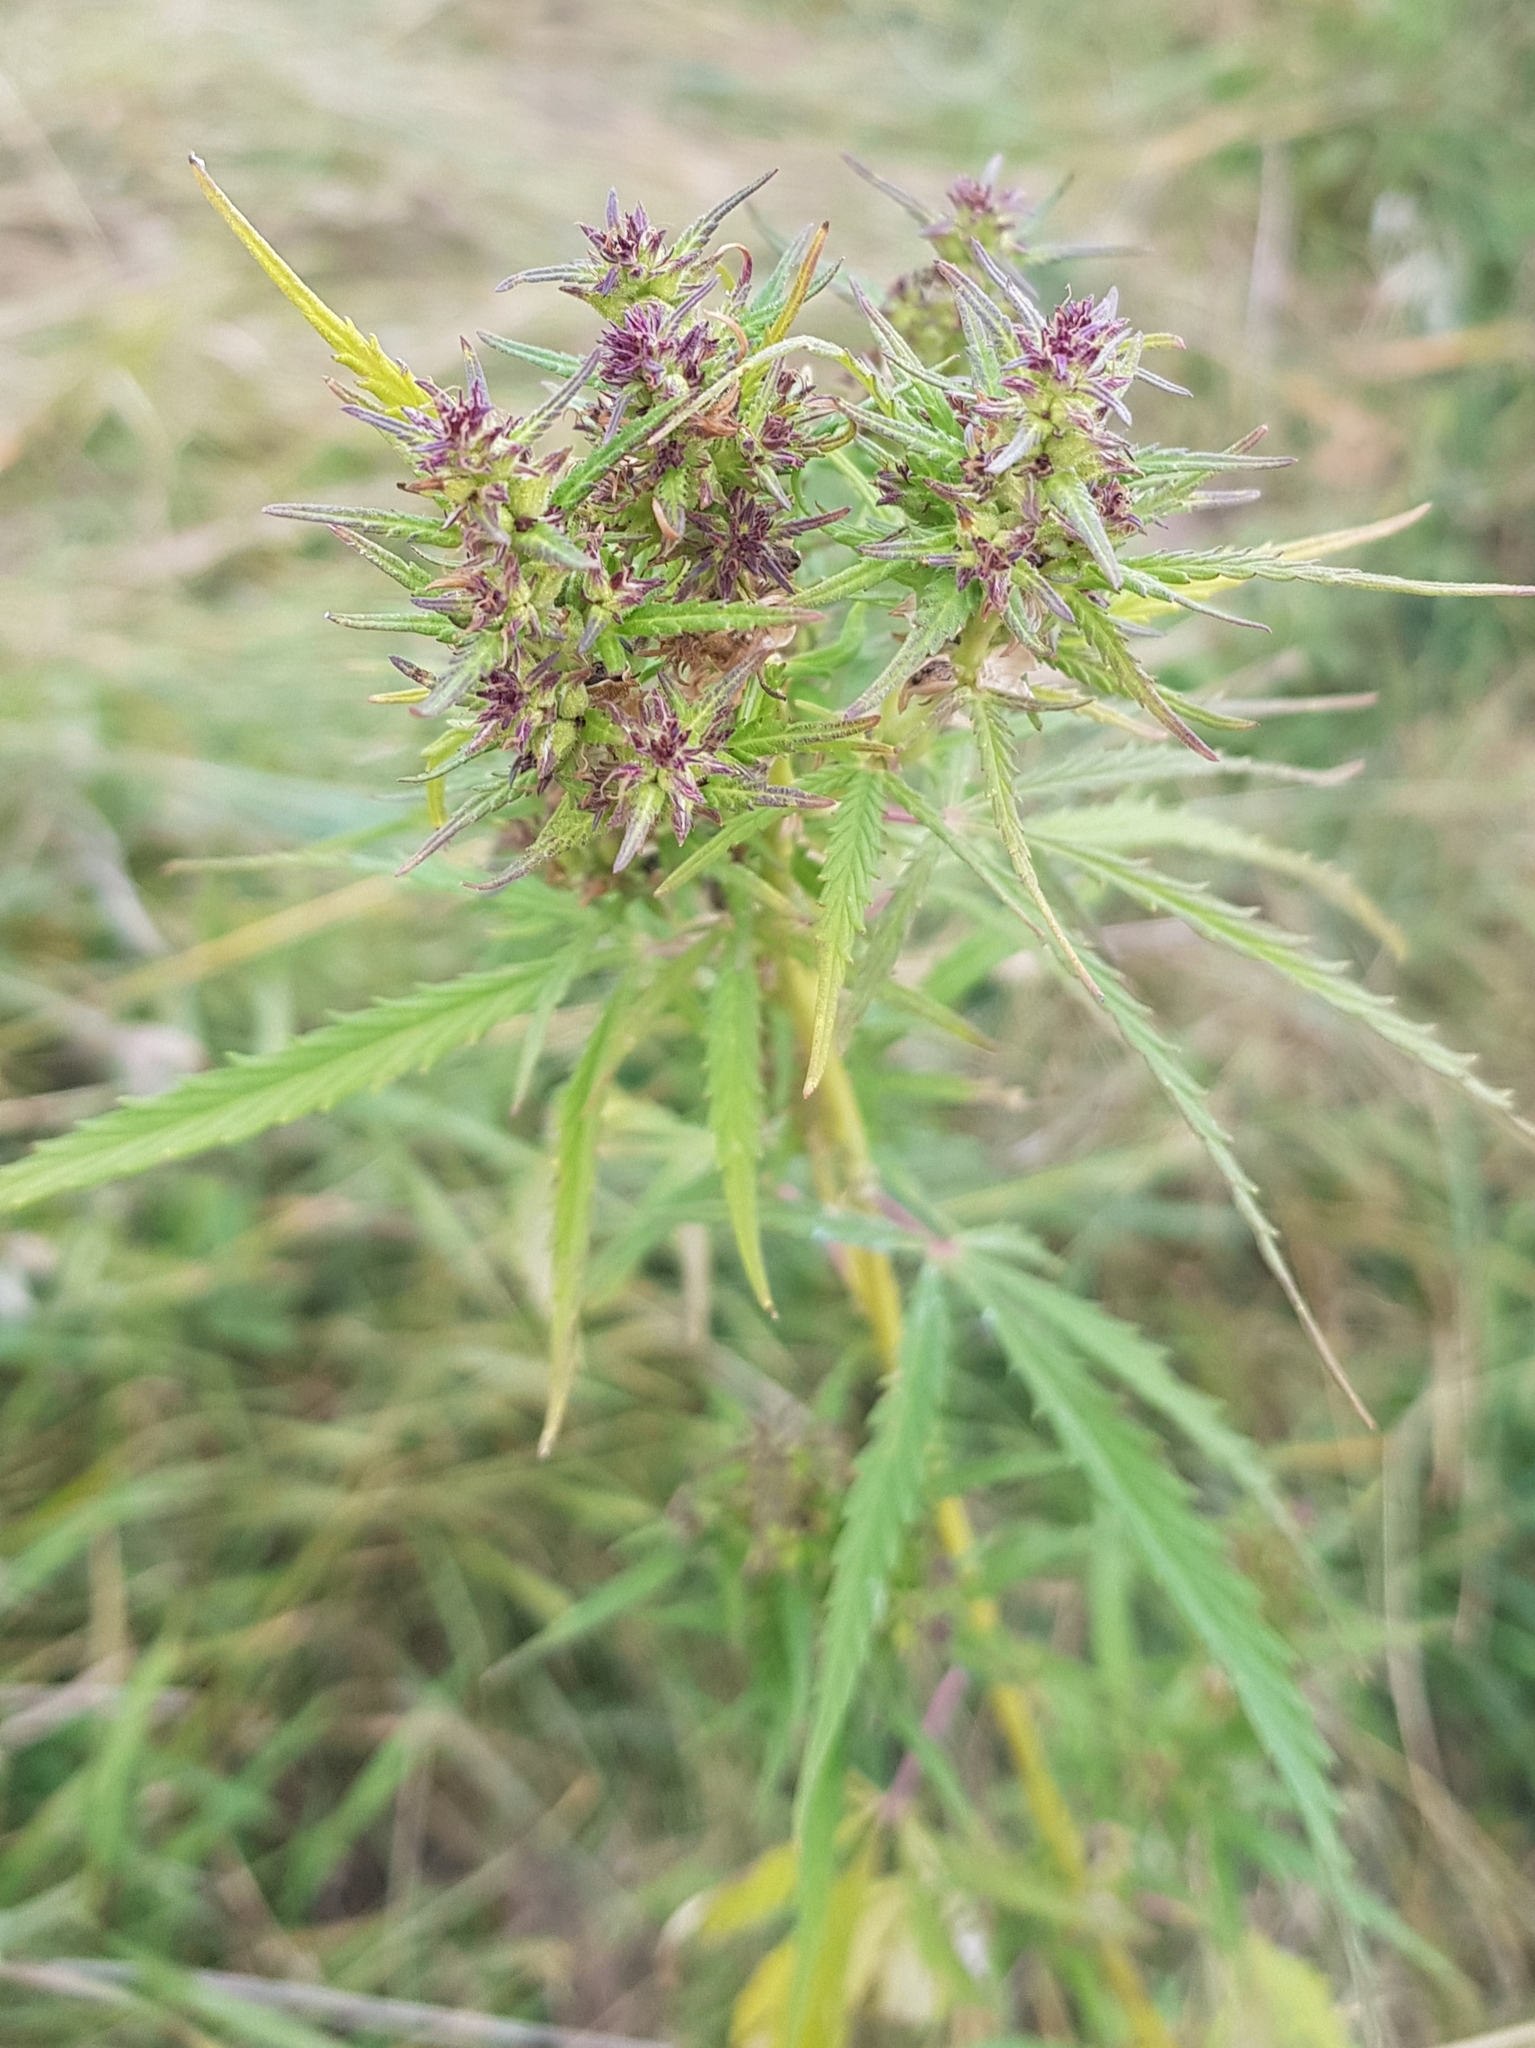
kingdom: Plantae
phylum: Tracheophyta
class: Magnoliopsida
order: Rosales
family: Cannabaceae
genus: Cannabis
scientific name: Cannabis sativa
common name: Hemp
